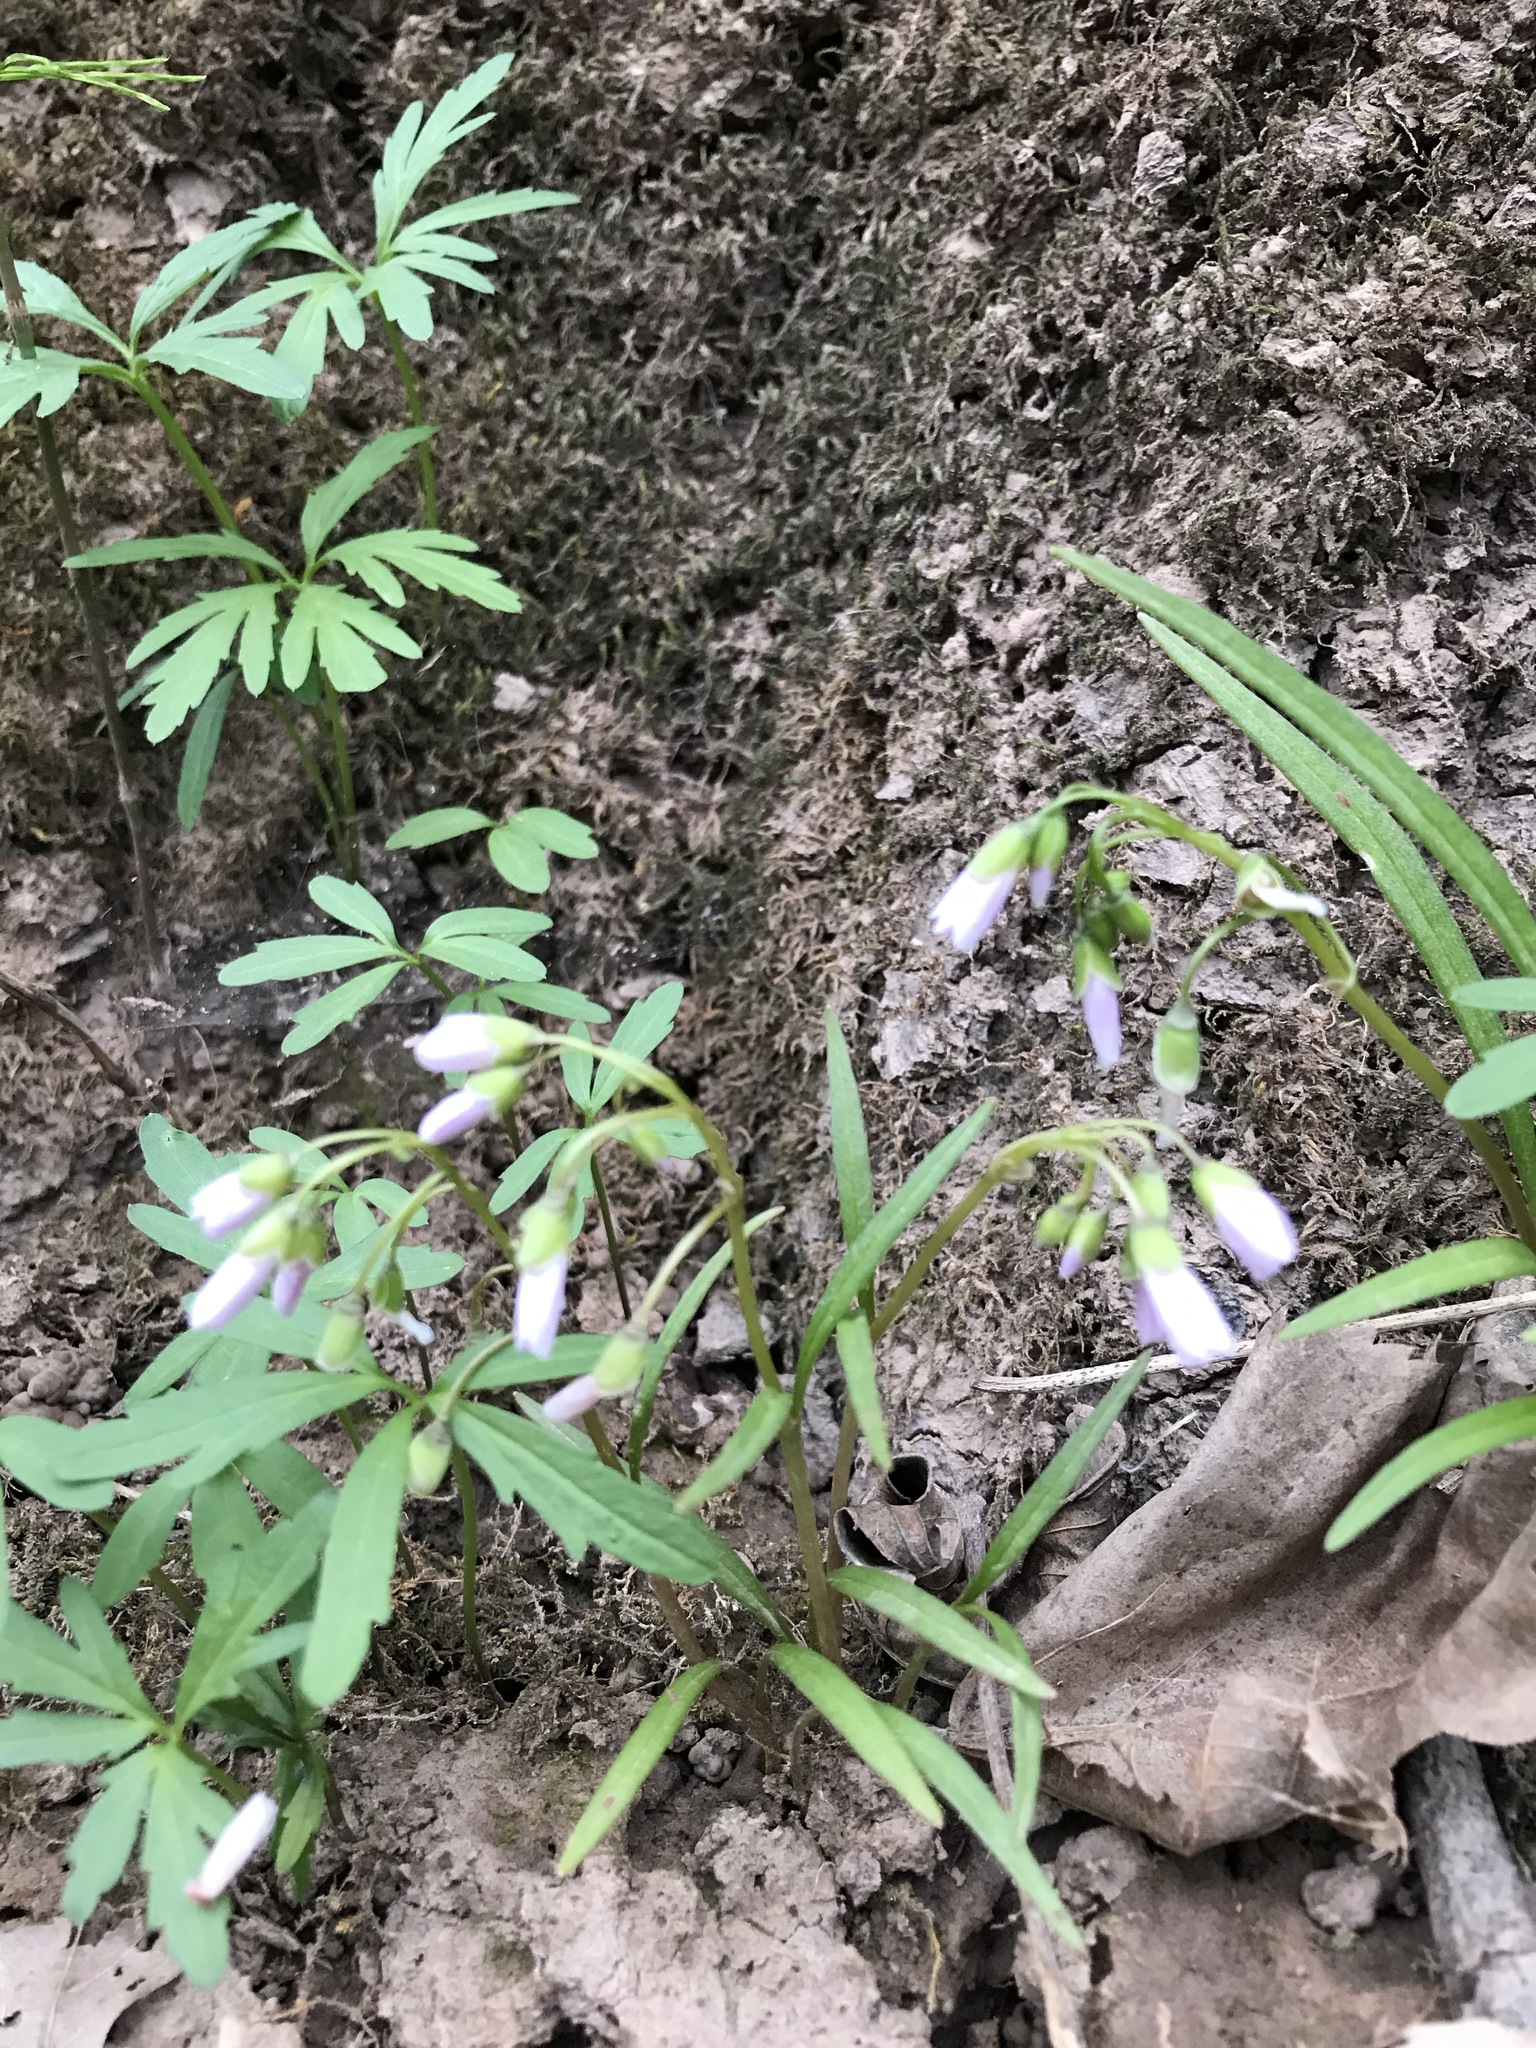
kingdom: Plantae
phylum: Tracheophyta
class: Magnoliopsida
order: Caryophyllales
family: Montiaceae
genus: Claytonia
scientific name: Claytonia virginica
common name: Virginia springbeauty
